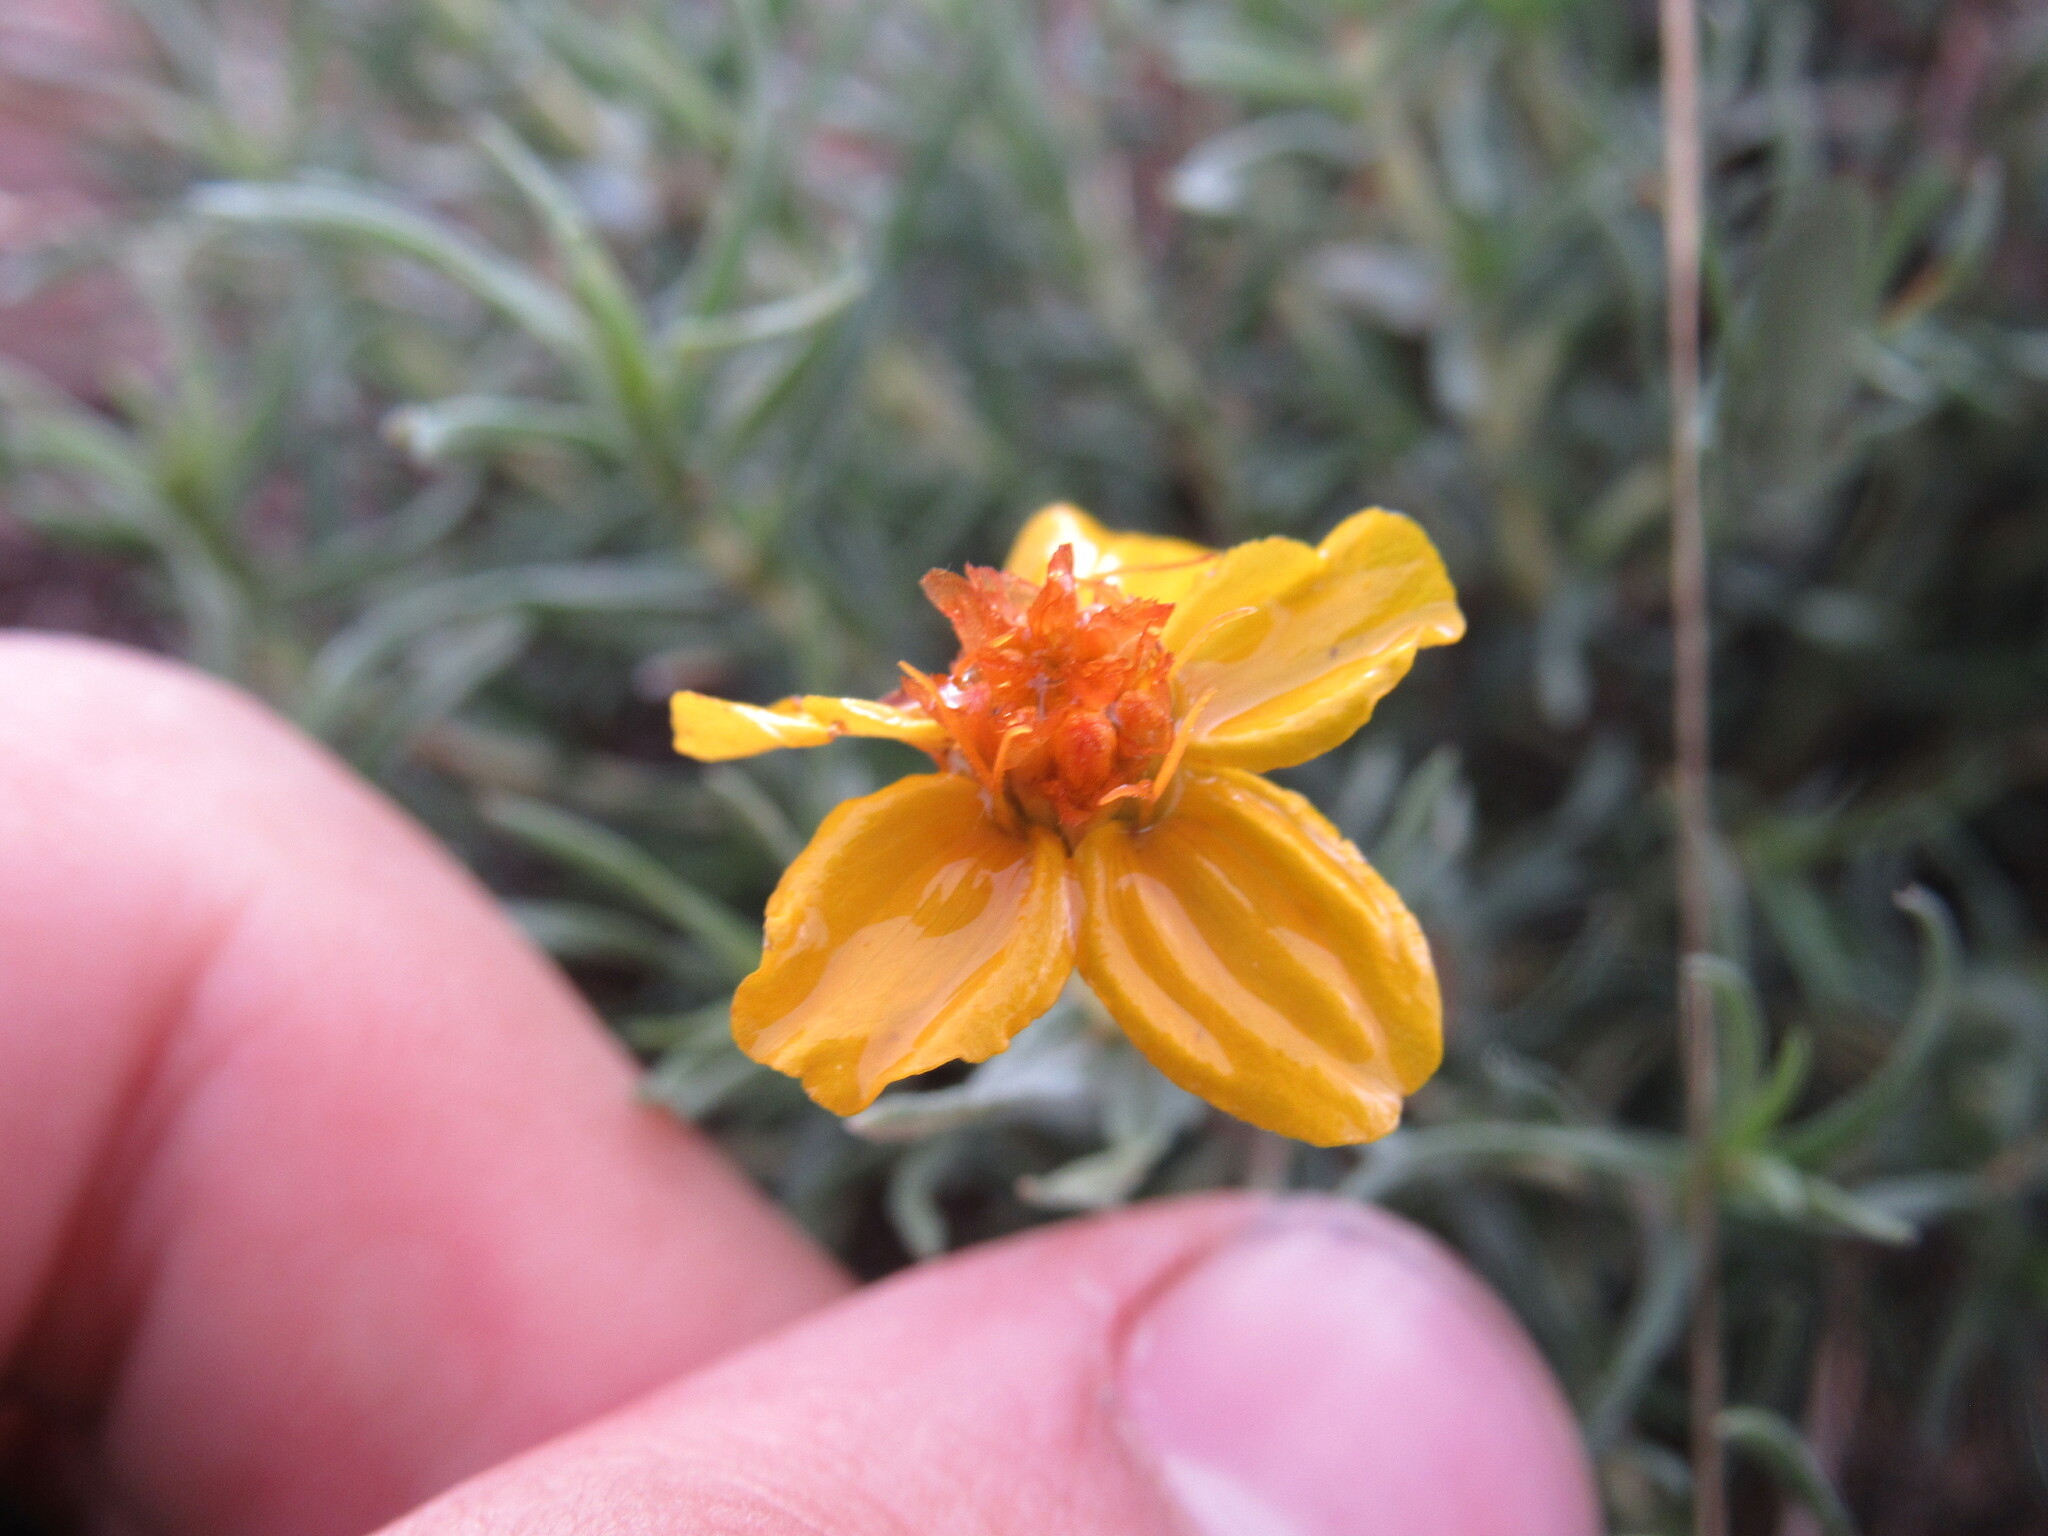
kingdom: Plantae
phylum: Tracheophyta
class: Magnoliopsida
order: Asterales
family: Asteraceae
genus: Zinnia
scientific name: Zinnia grandiflora
